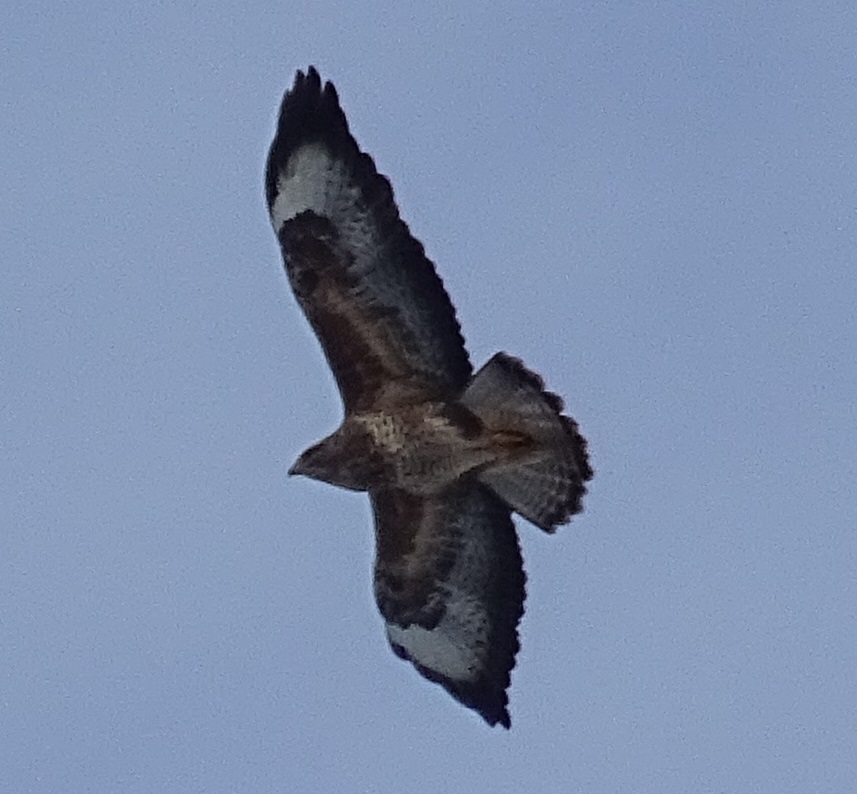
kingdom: Animalia
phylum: Chordata
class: Aves
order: Accipitriformes
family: Accipitridae
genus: Buteo
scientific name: Buteo buteo
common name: Common buzzard
